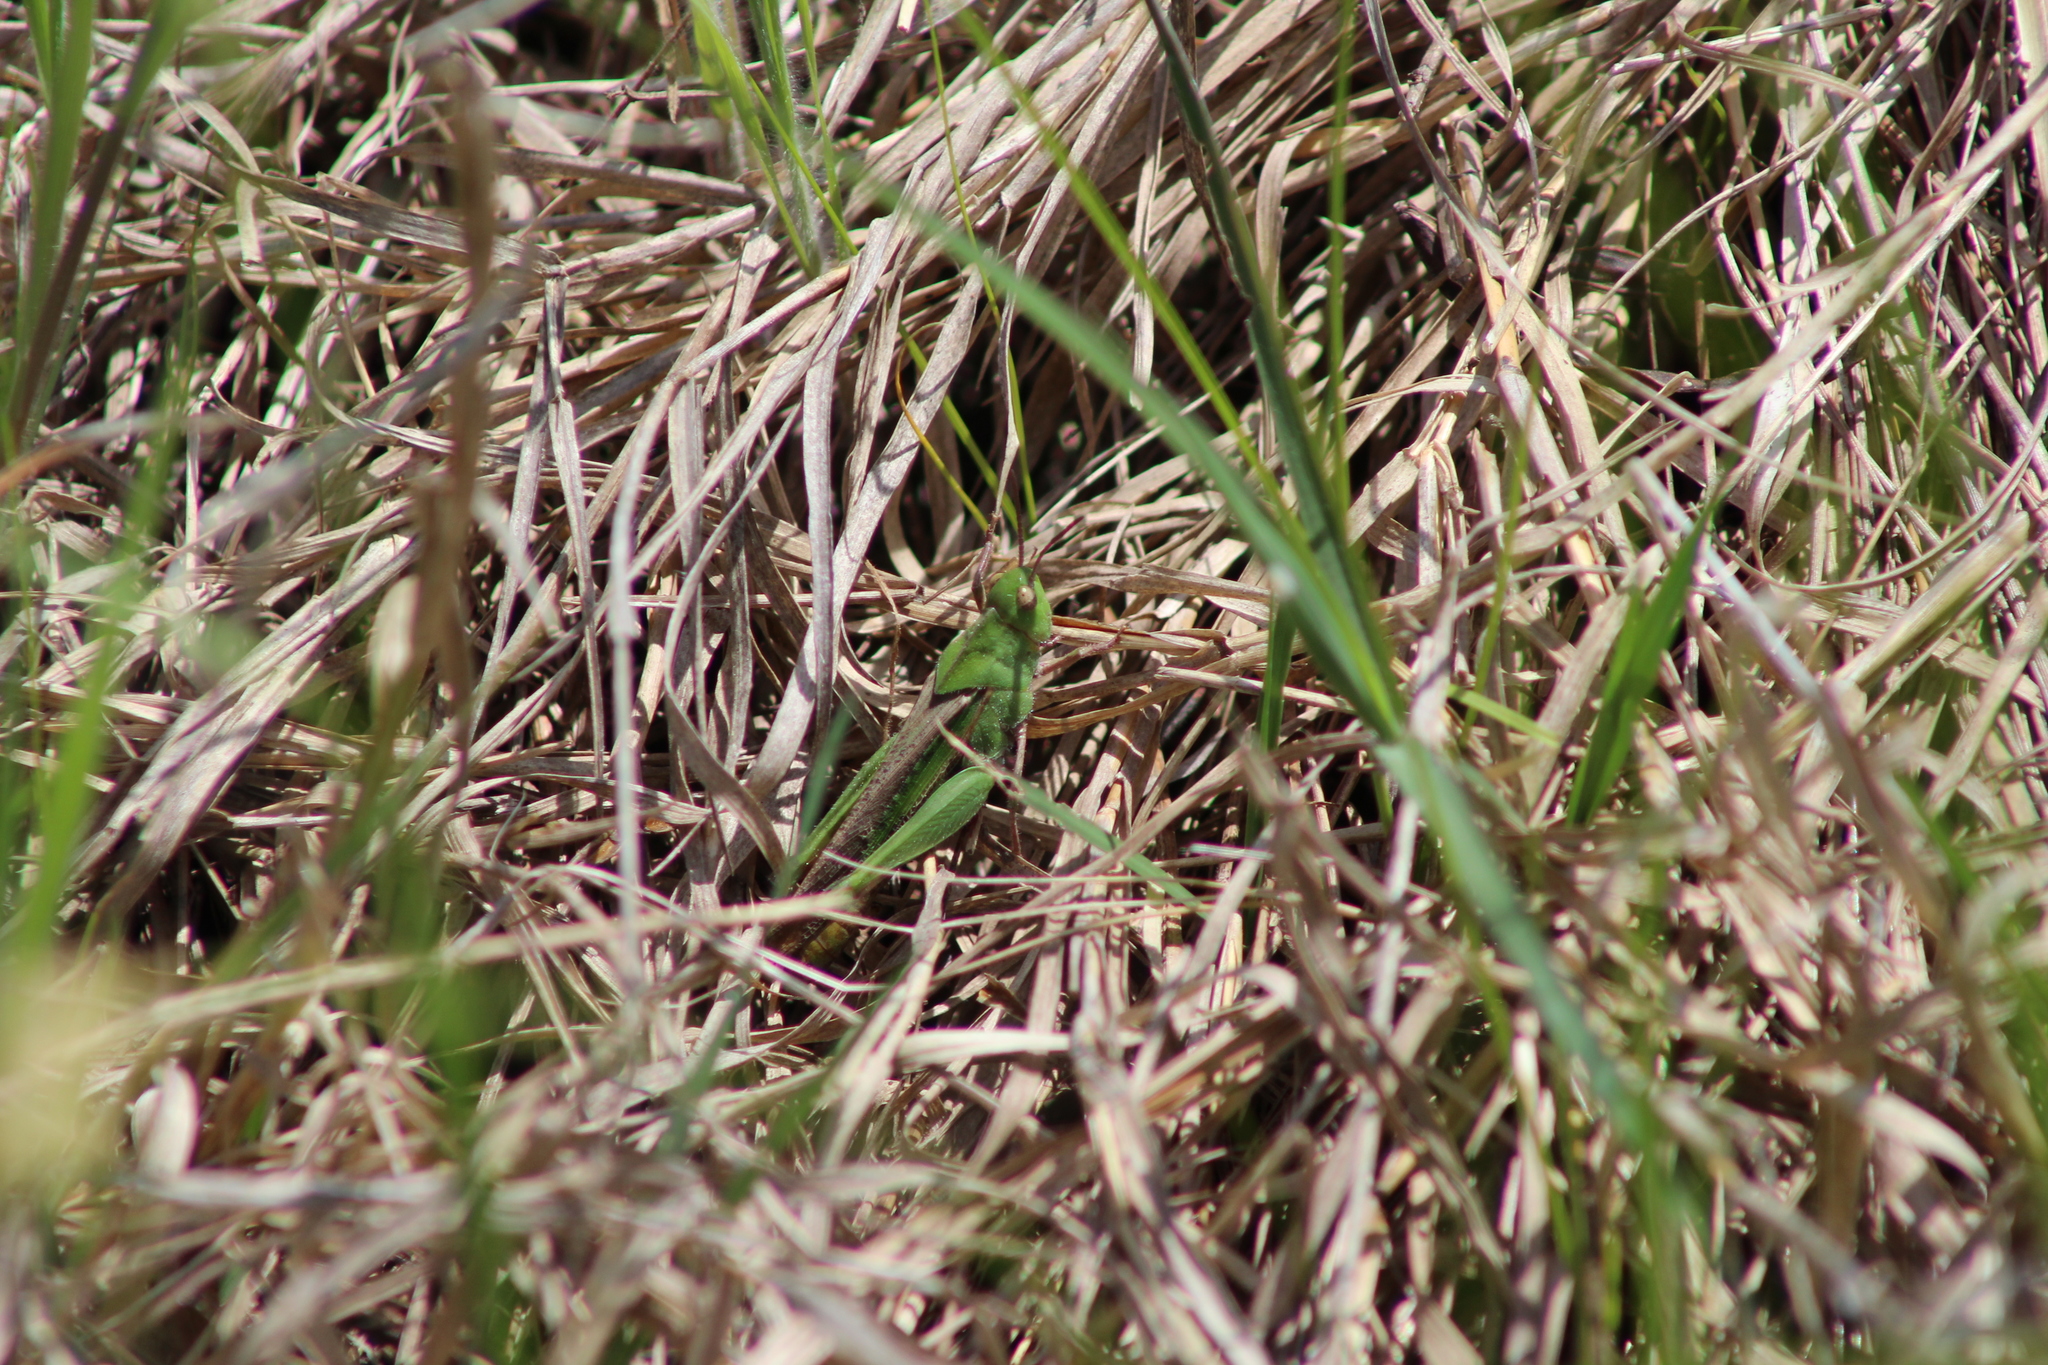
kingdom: Animalia
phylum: Arthropoda
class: Insecta
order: Orthoptera
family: Acrididae
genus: Chortophaga
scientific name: Chortophaga viridifasciata
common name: Green-striped grasshopper
